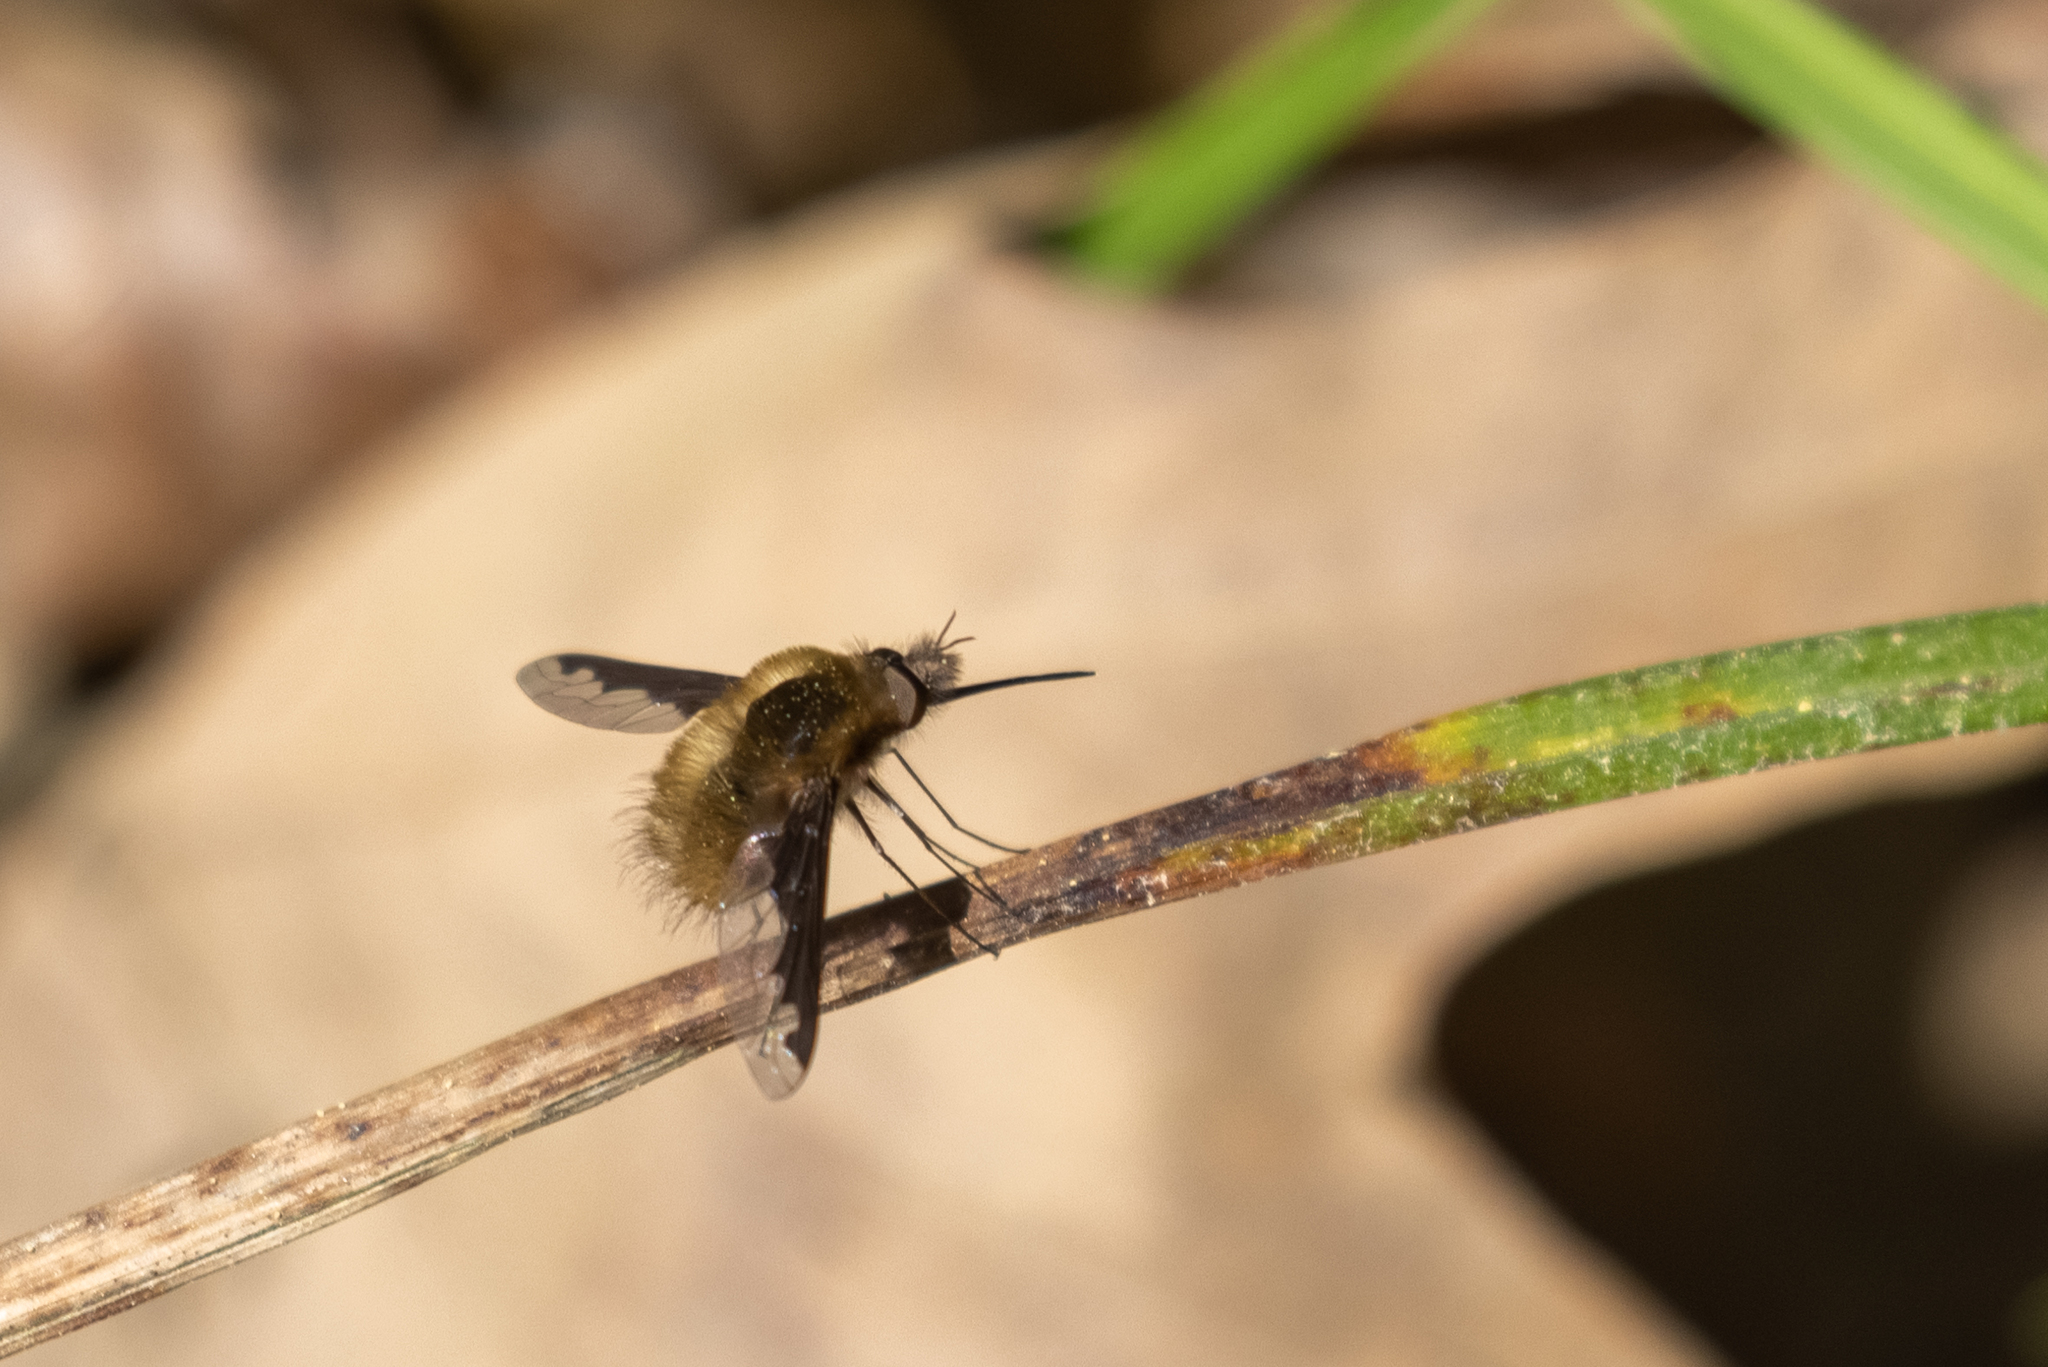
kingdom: Animalia
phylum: Arthropoda
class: Insecta
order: Diptera
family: Bombyliidae
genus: Bombylius
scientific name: Bombylius major
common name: Bee fly
